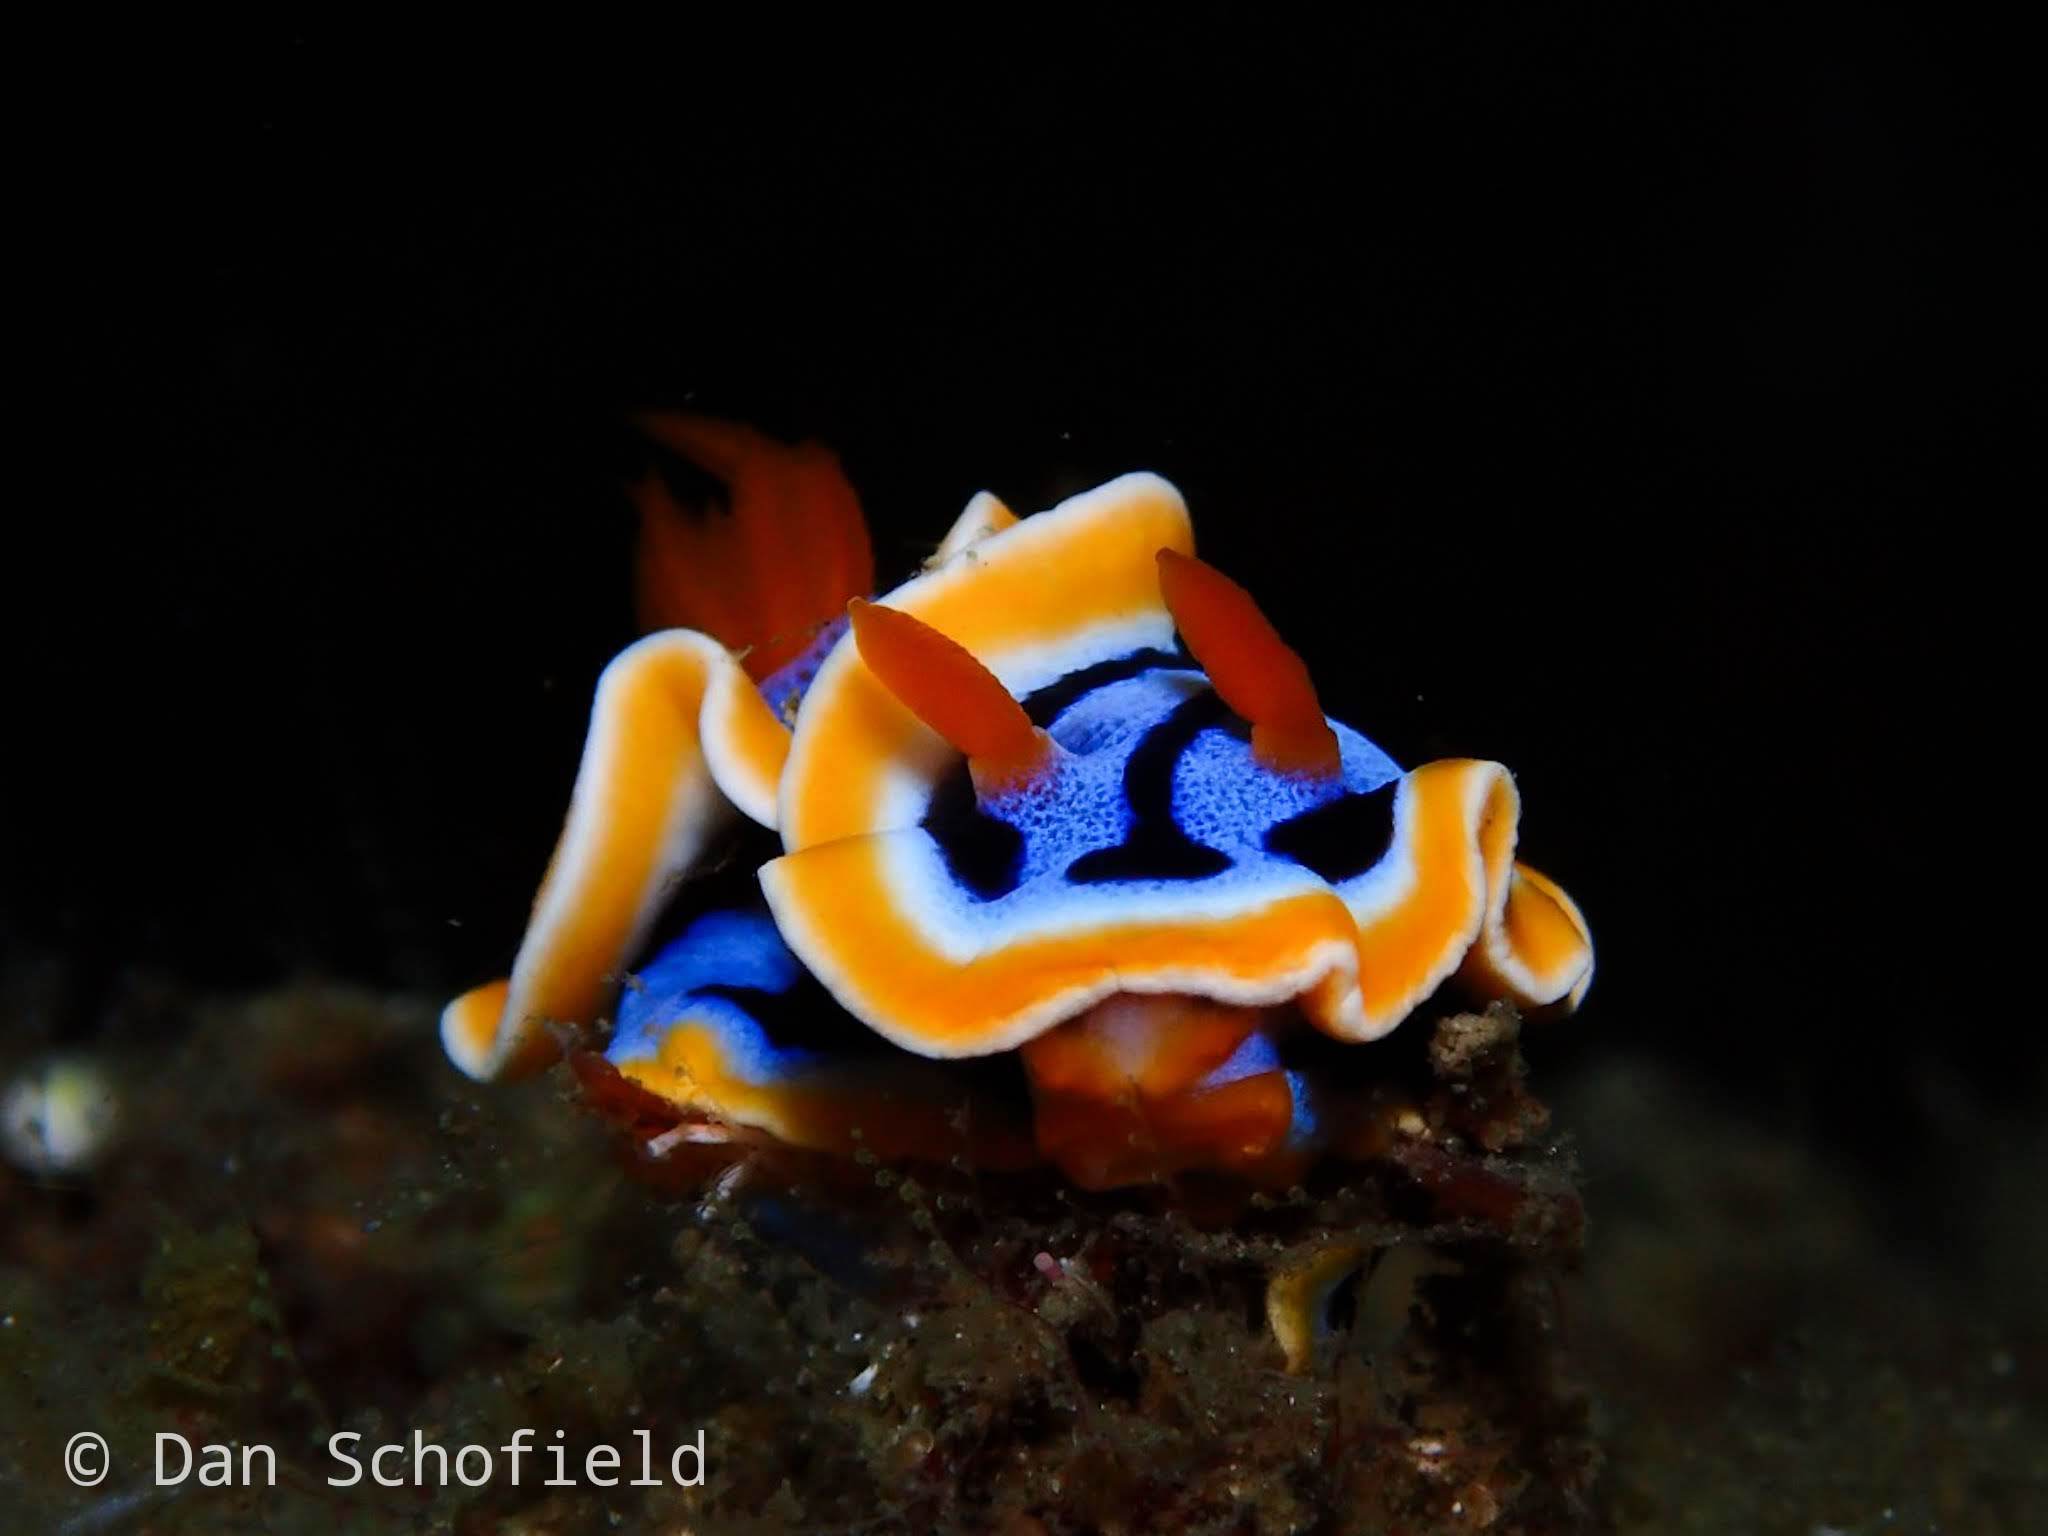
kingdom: Animalia
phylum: Mollusca
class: Gastropoda
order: Nudibranchia
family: Chromodorididae
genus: Chromodoris
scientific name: Chromodoris annae
